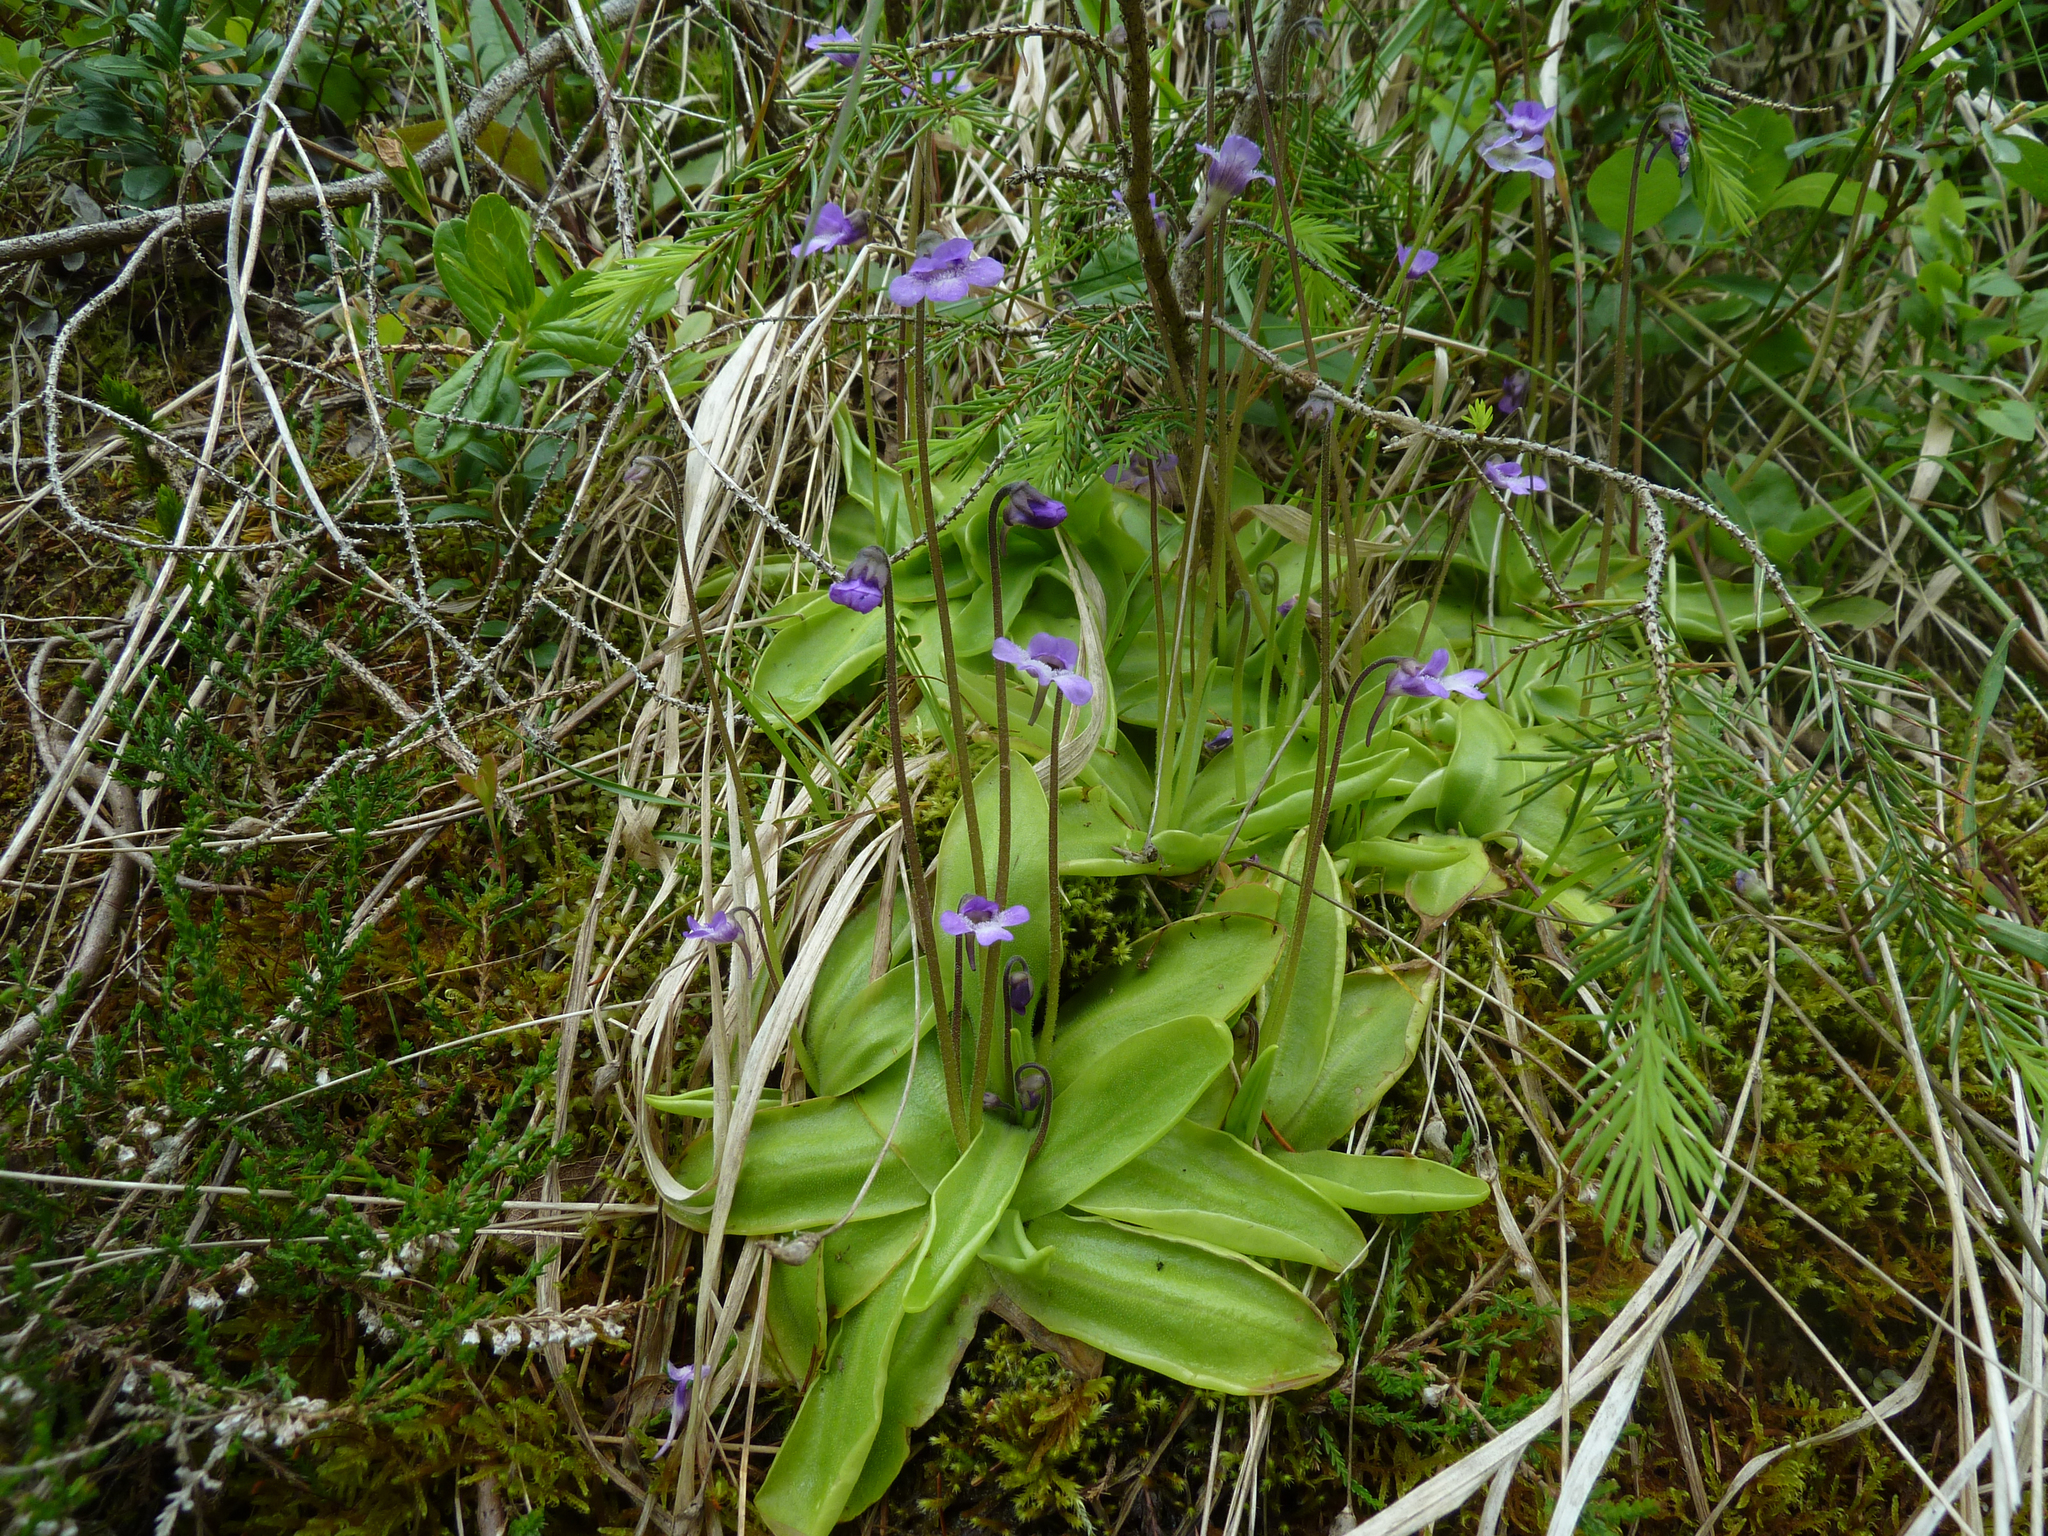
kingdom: Plantae
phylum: Tracheophyta
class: Magnoliopsida
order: Lamiales
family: Lentibulariaceae
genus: Pinguicula
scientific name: Pinguicula vulgaris
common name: Common butterwort
